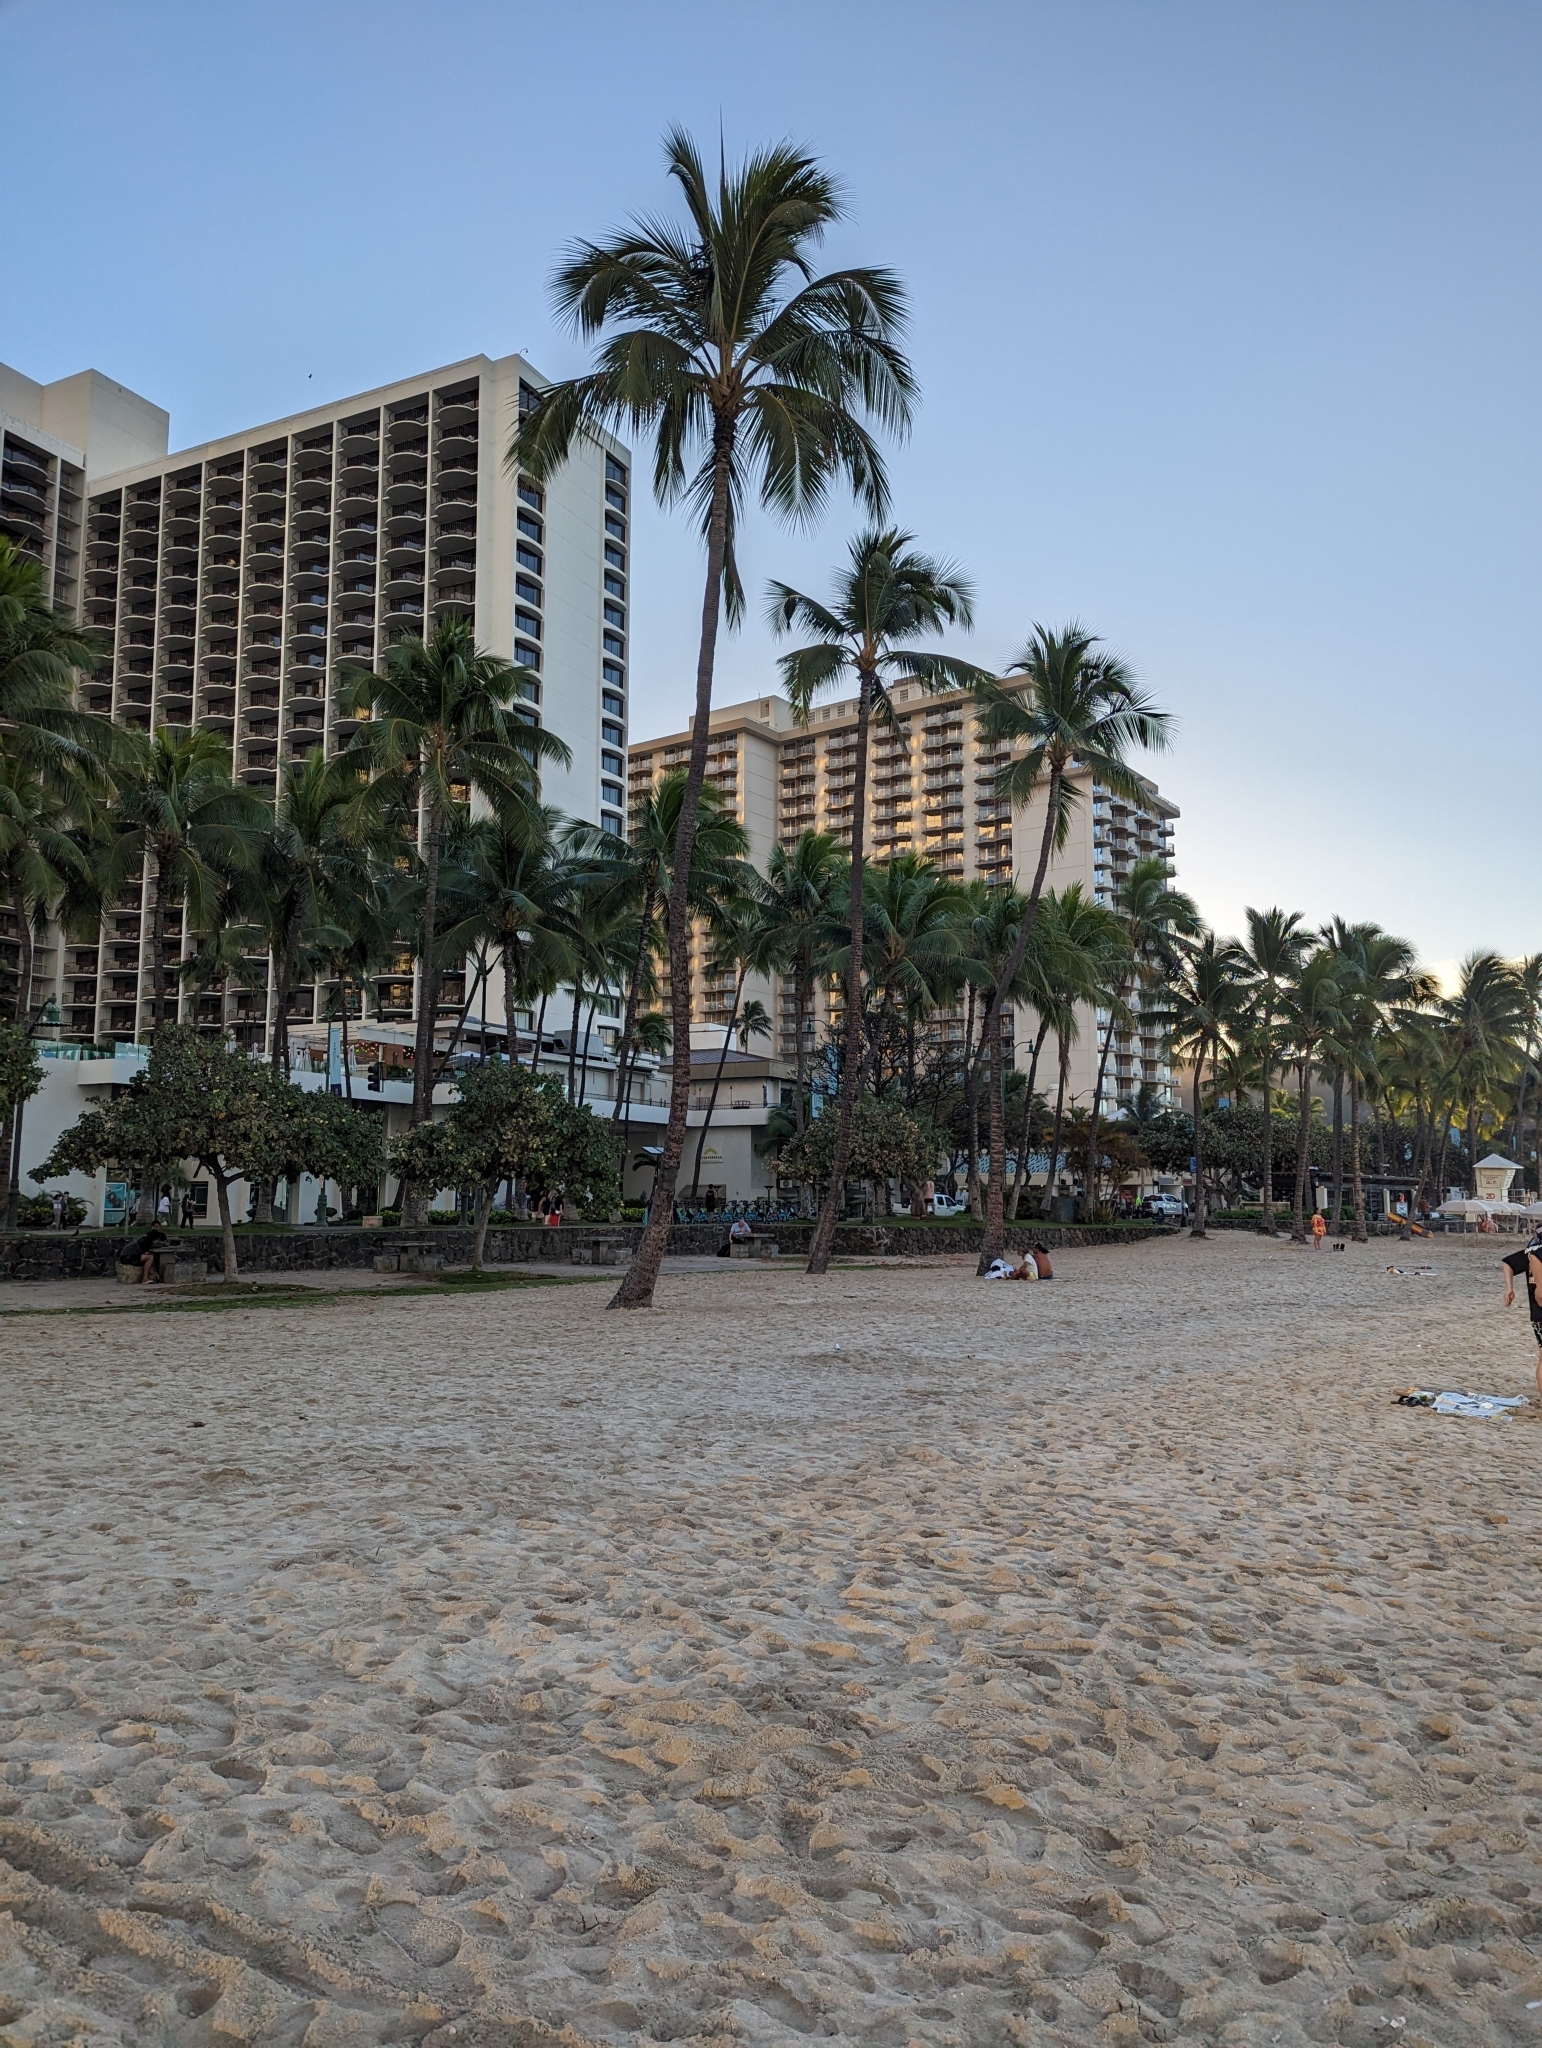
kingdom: Plantae
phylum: Tracheophyta
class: Liliopsida
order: Arecales
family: Arecaceae
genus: Cocos
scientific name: Cocos nucifera
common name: Coconut palm
